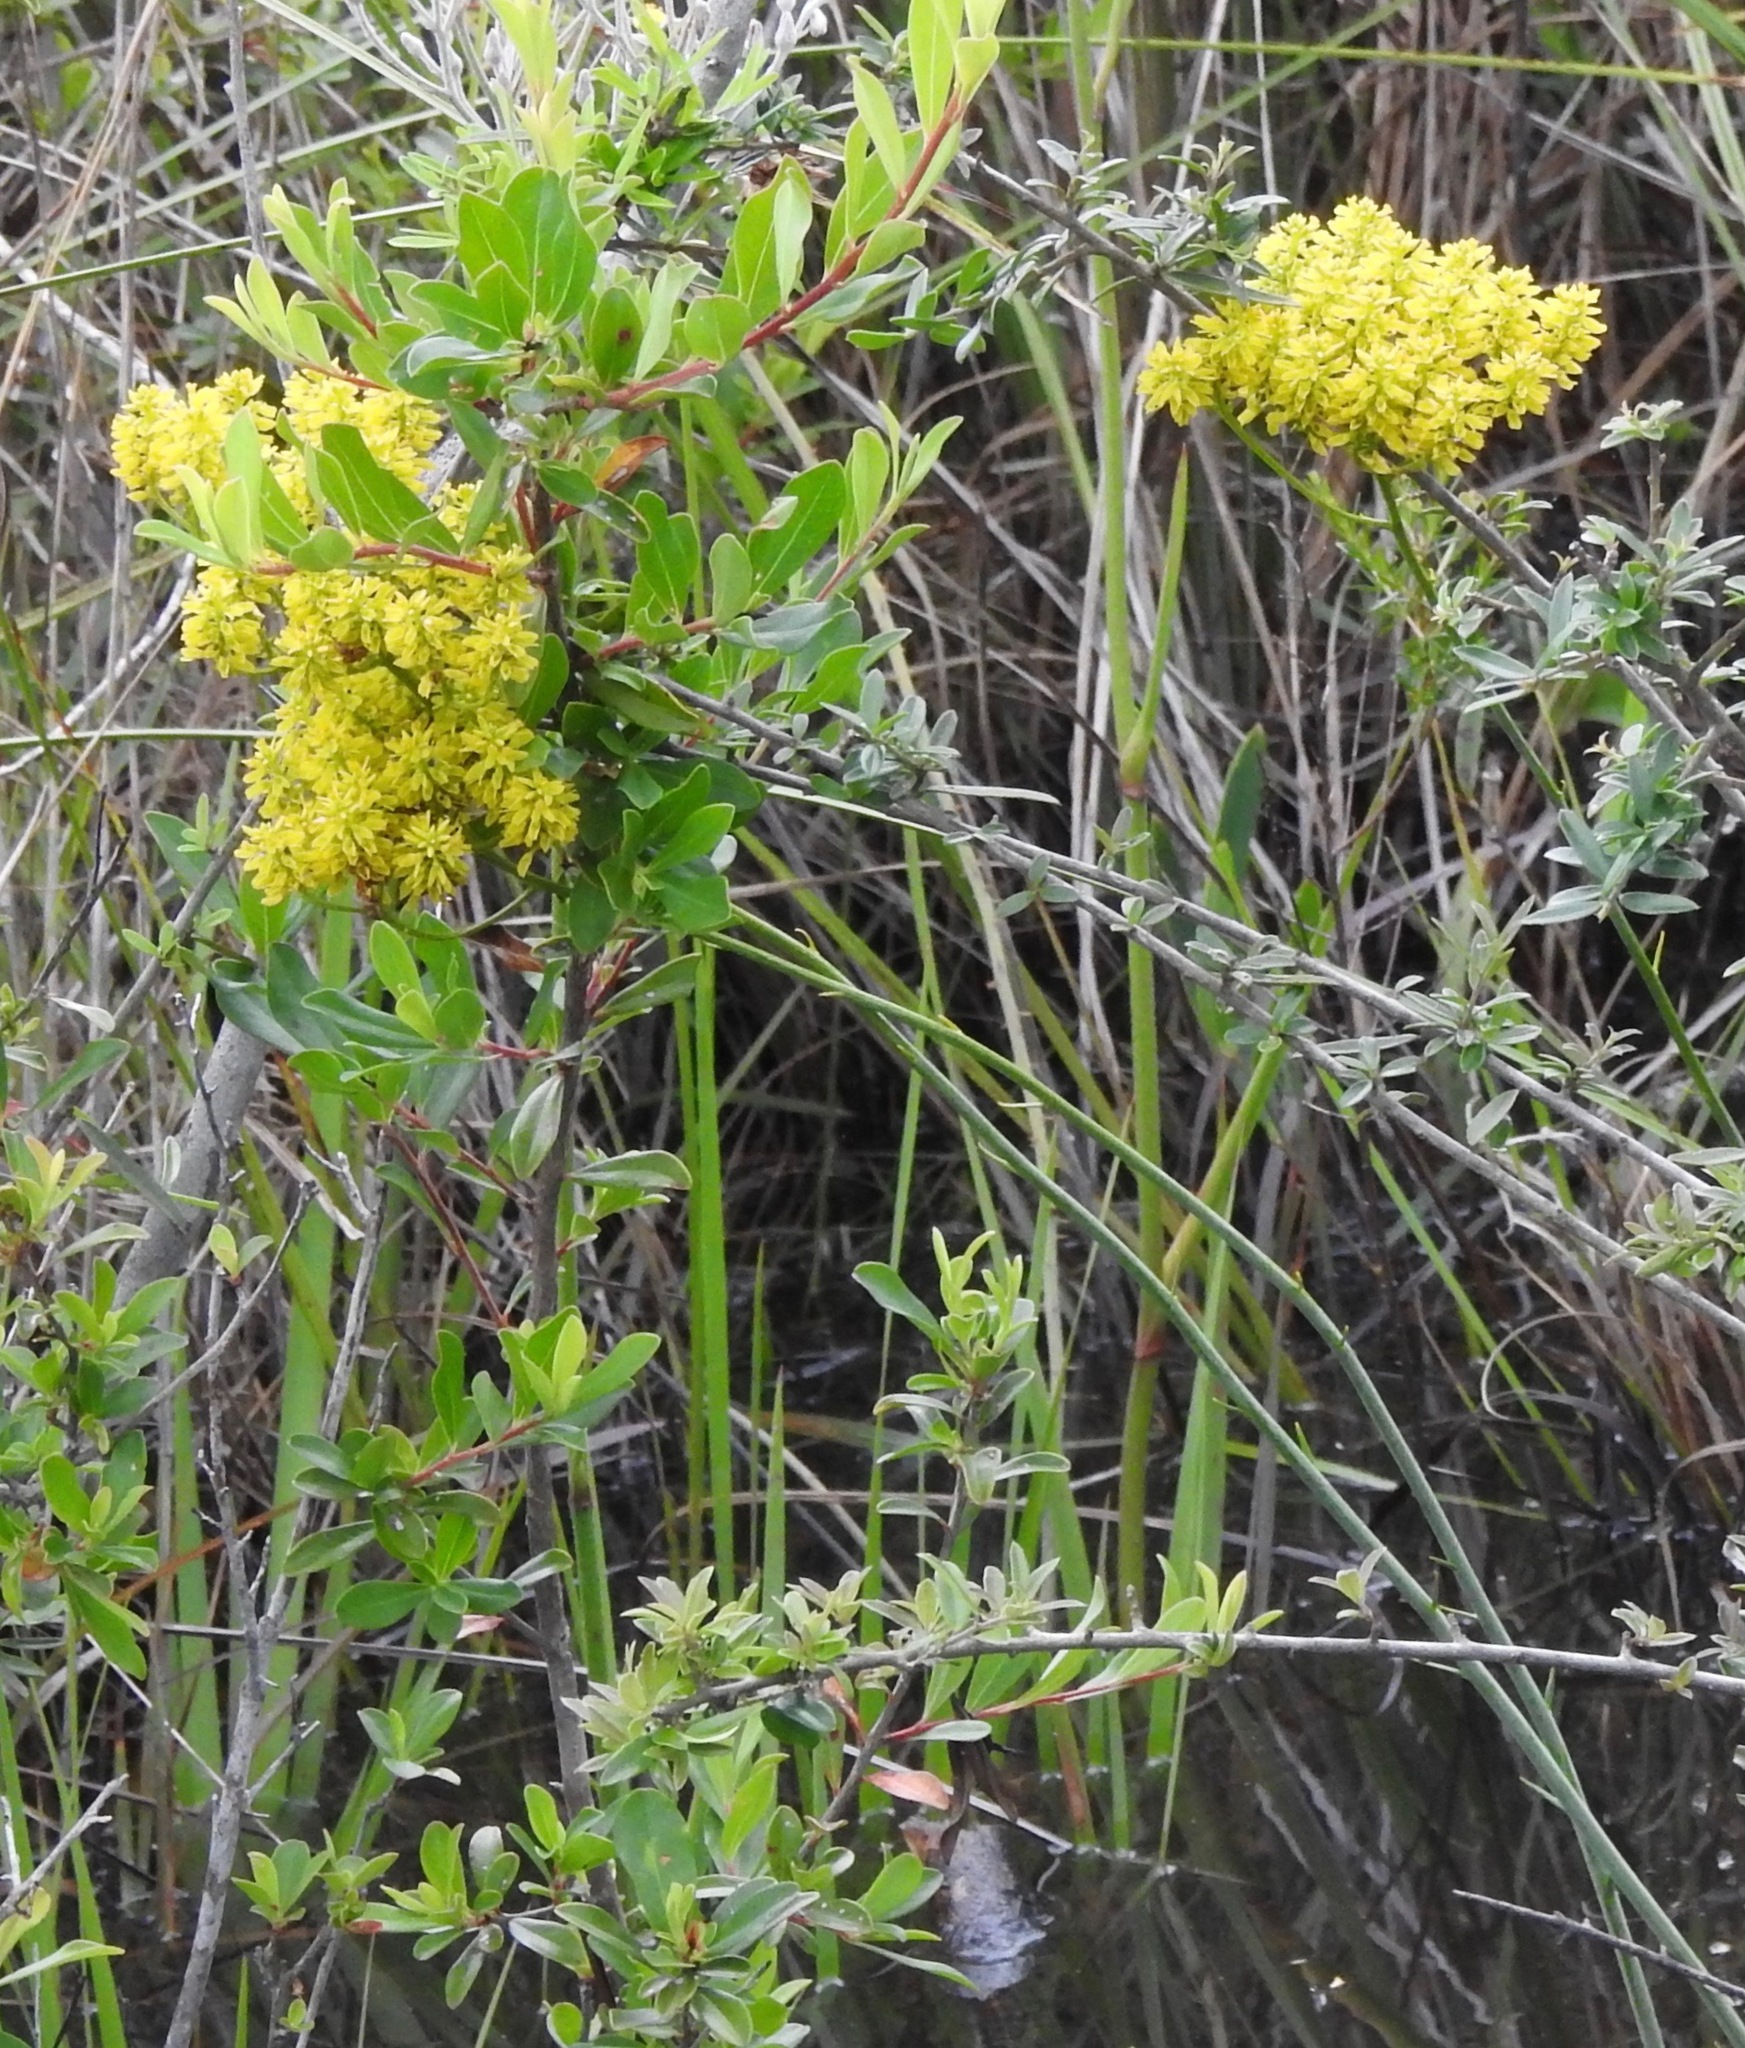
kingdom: Plantae
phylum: Tracheophyta
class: Magnoliopsida
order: Fabales
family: Polygalaceae
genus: Polygala
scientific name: Polygala cymosa
